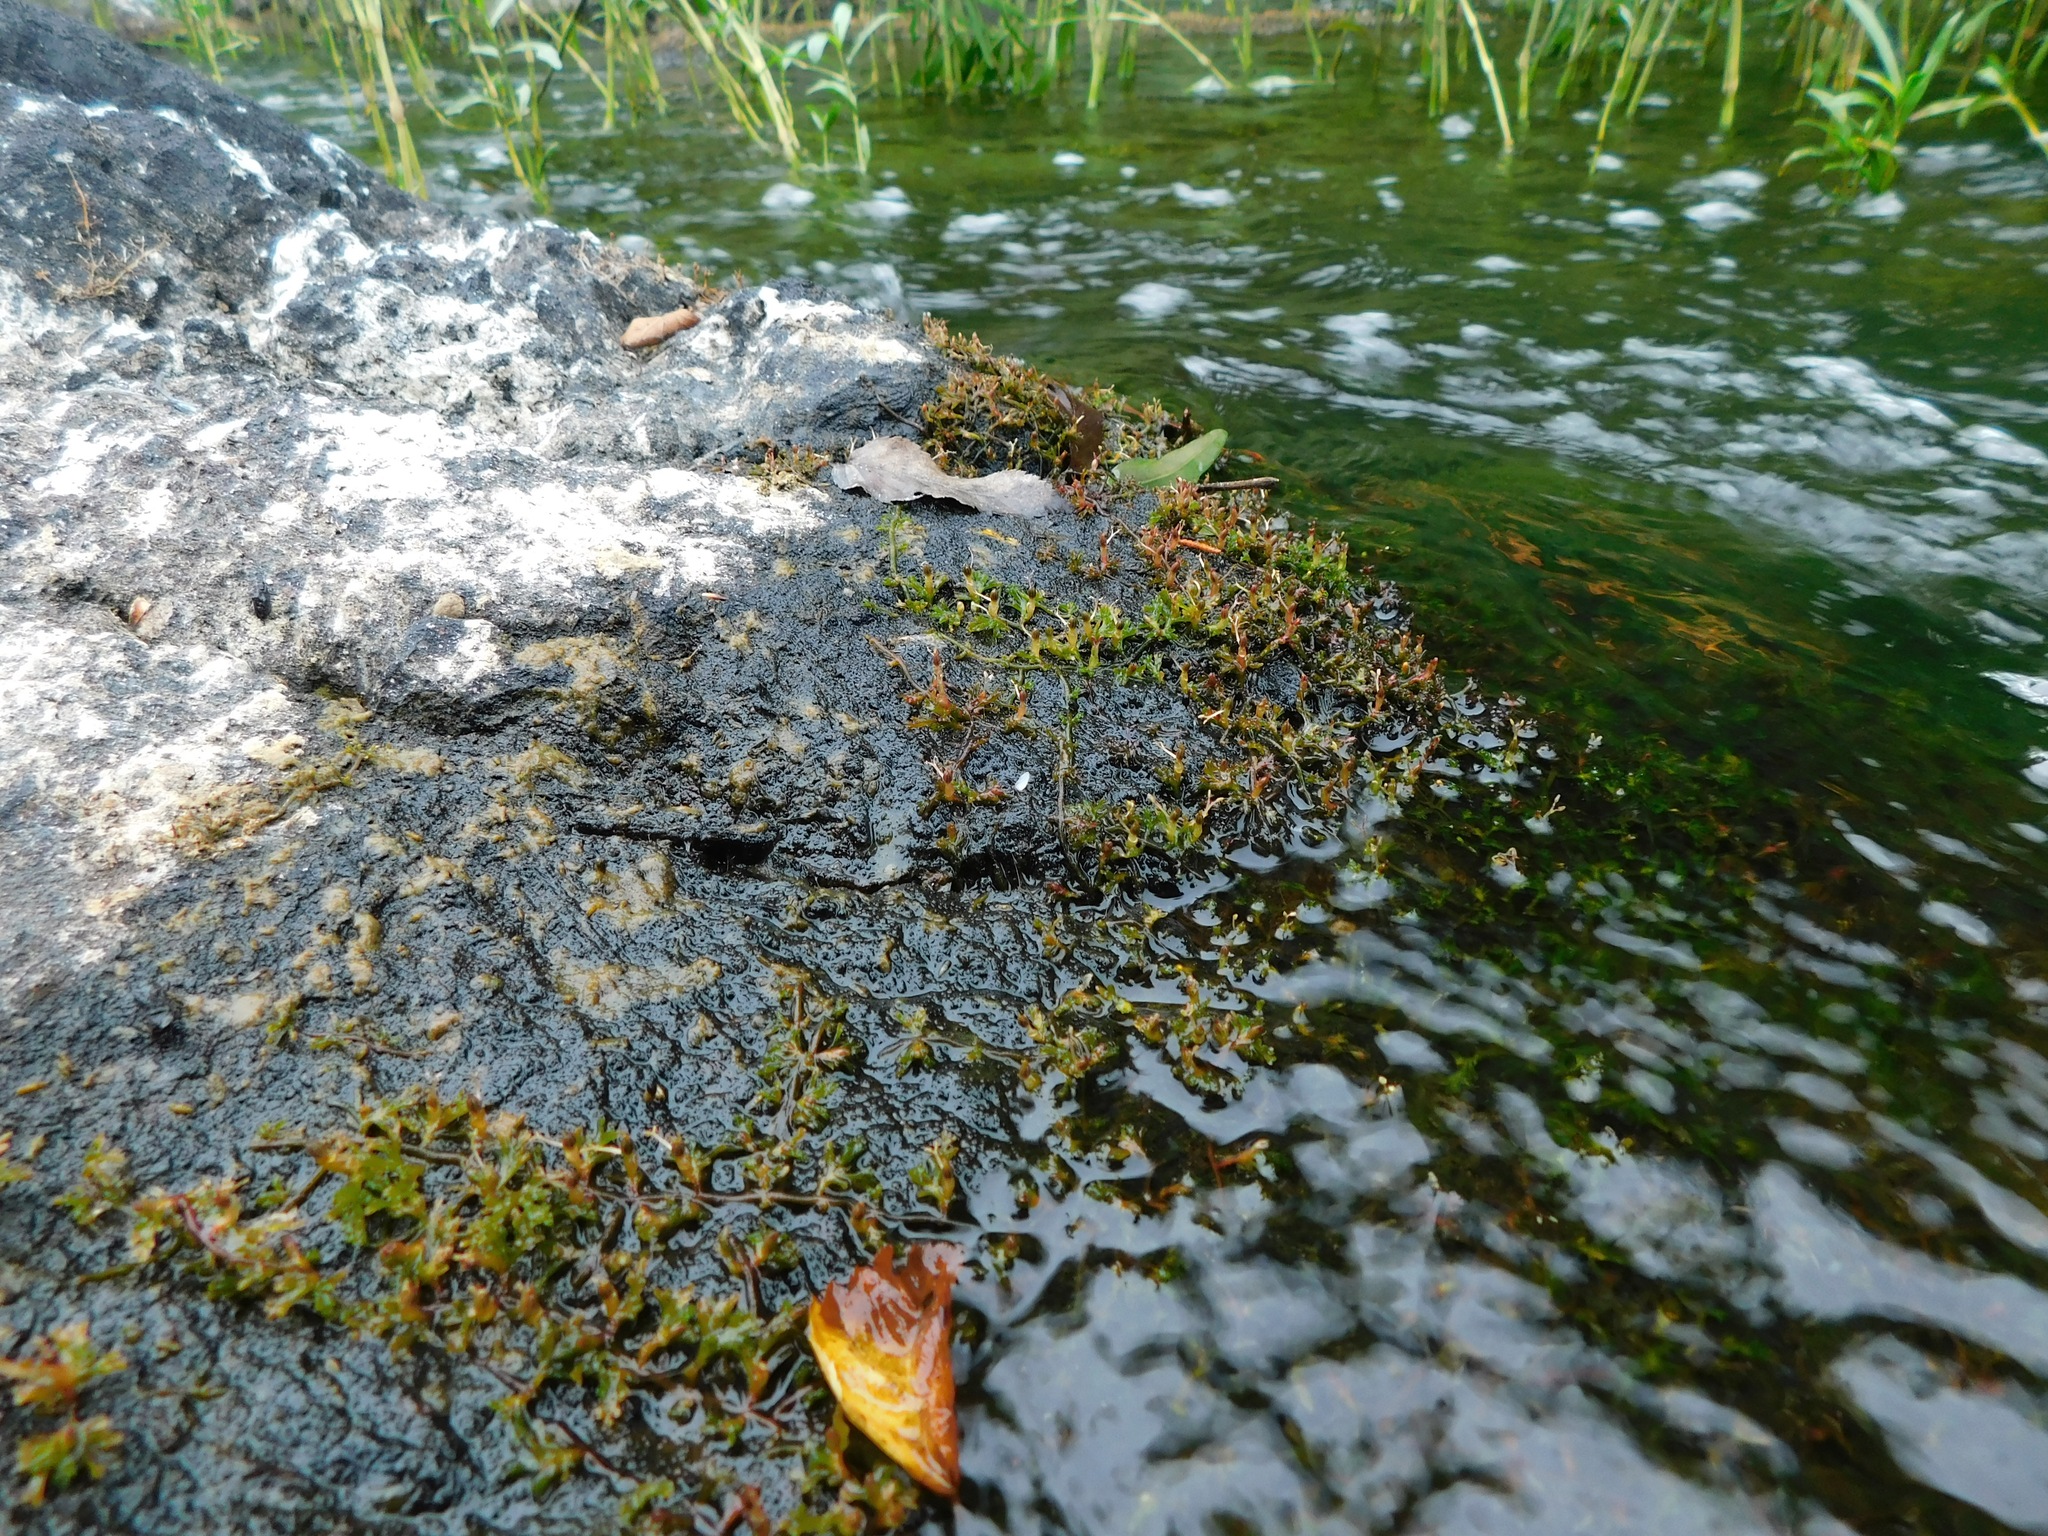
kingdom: Plantae
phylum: Tracheophyta
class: Magnoliopsida
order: Malpighiales
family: Podostemaceae
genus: Podostemum
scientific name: Podostemum ceratophyllum
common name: Horn-leaved riverweed
